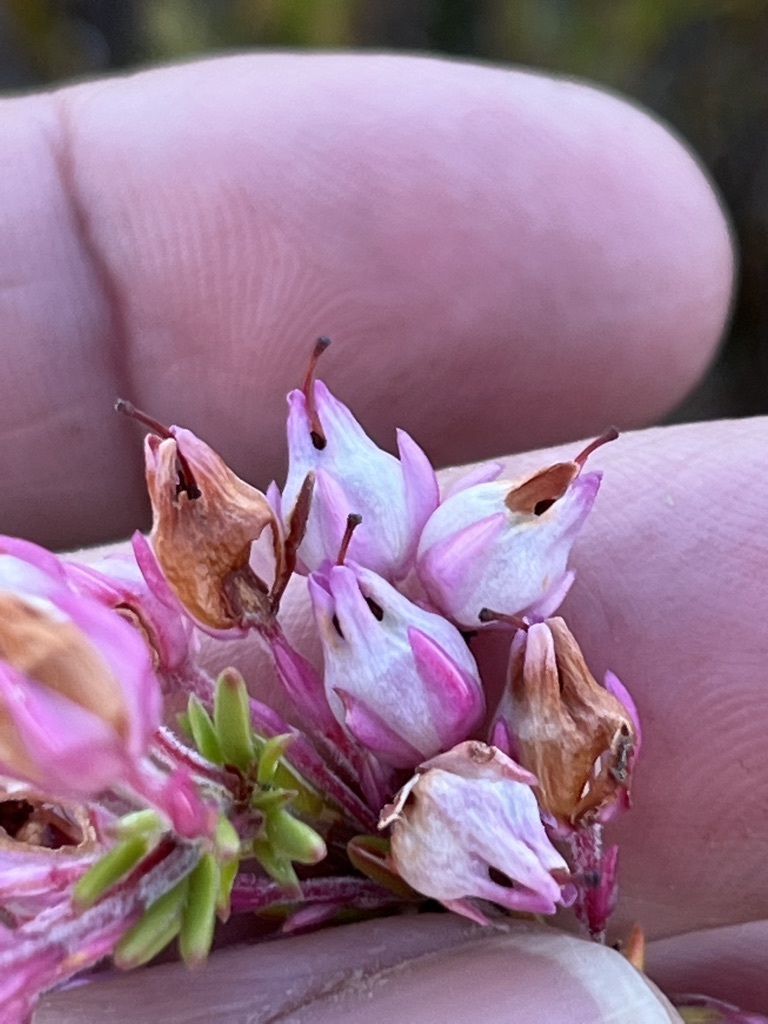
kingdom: Plantae
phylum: Tracheophyta
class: Magnoliopsida
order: Ericales
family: Ericaceae
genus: Erica
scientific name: Erica excavata
